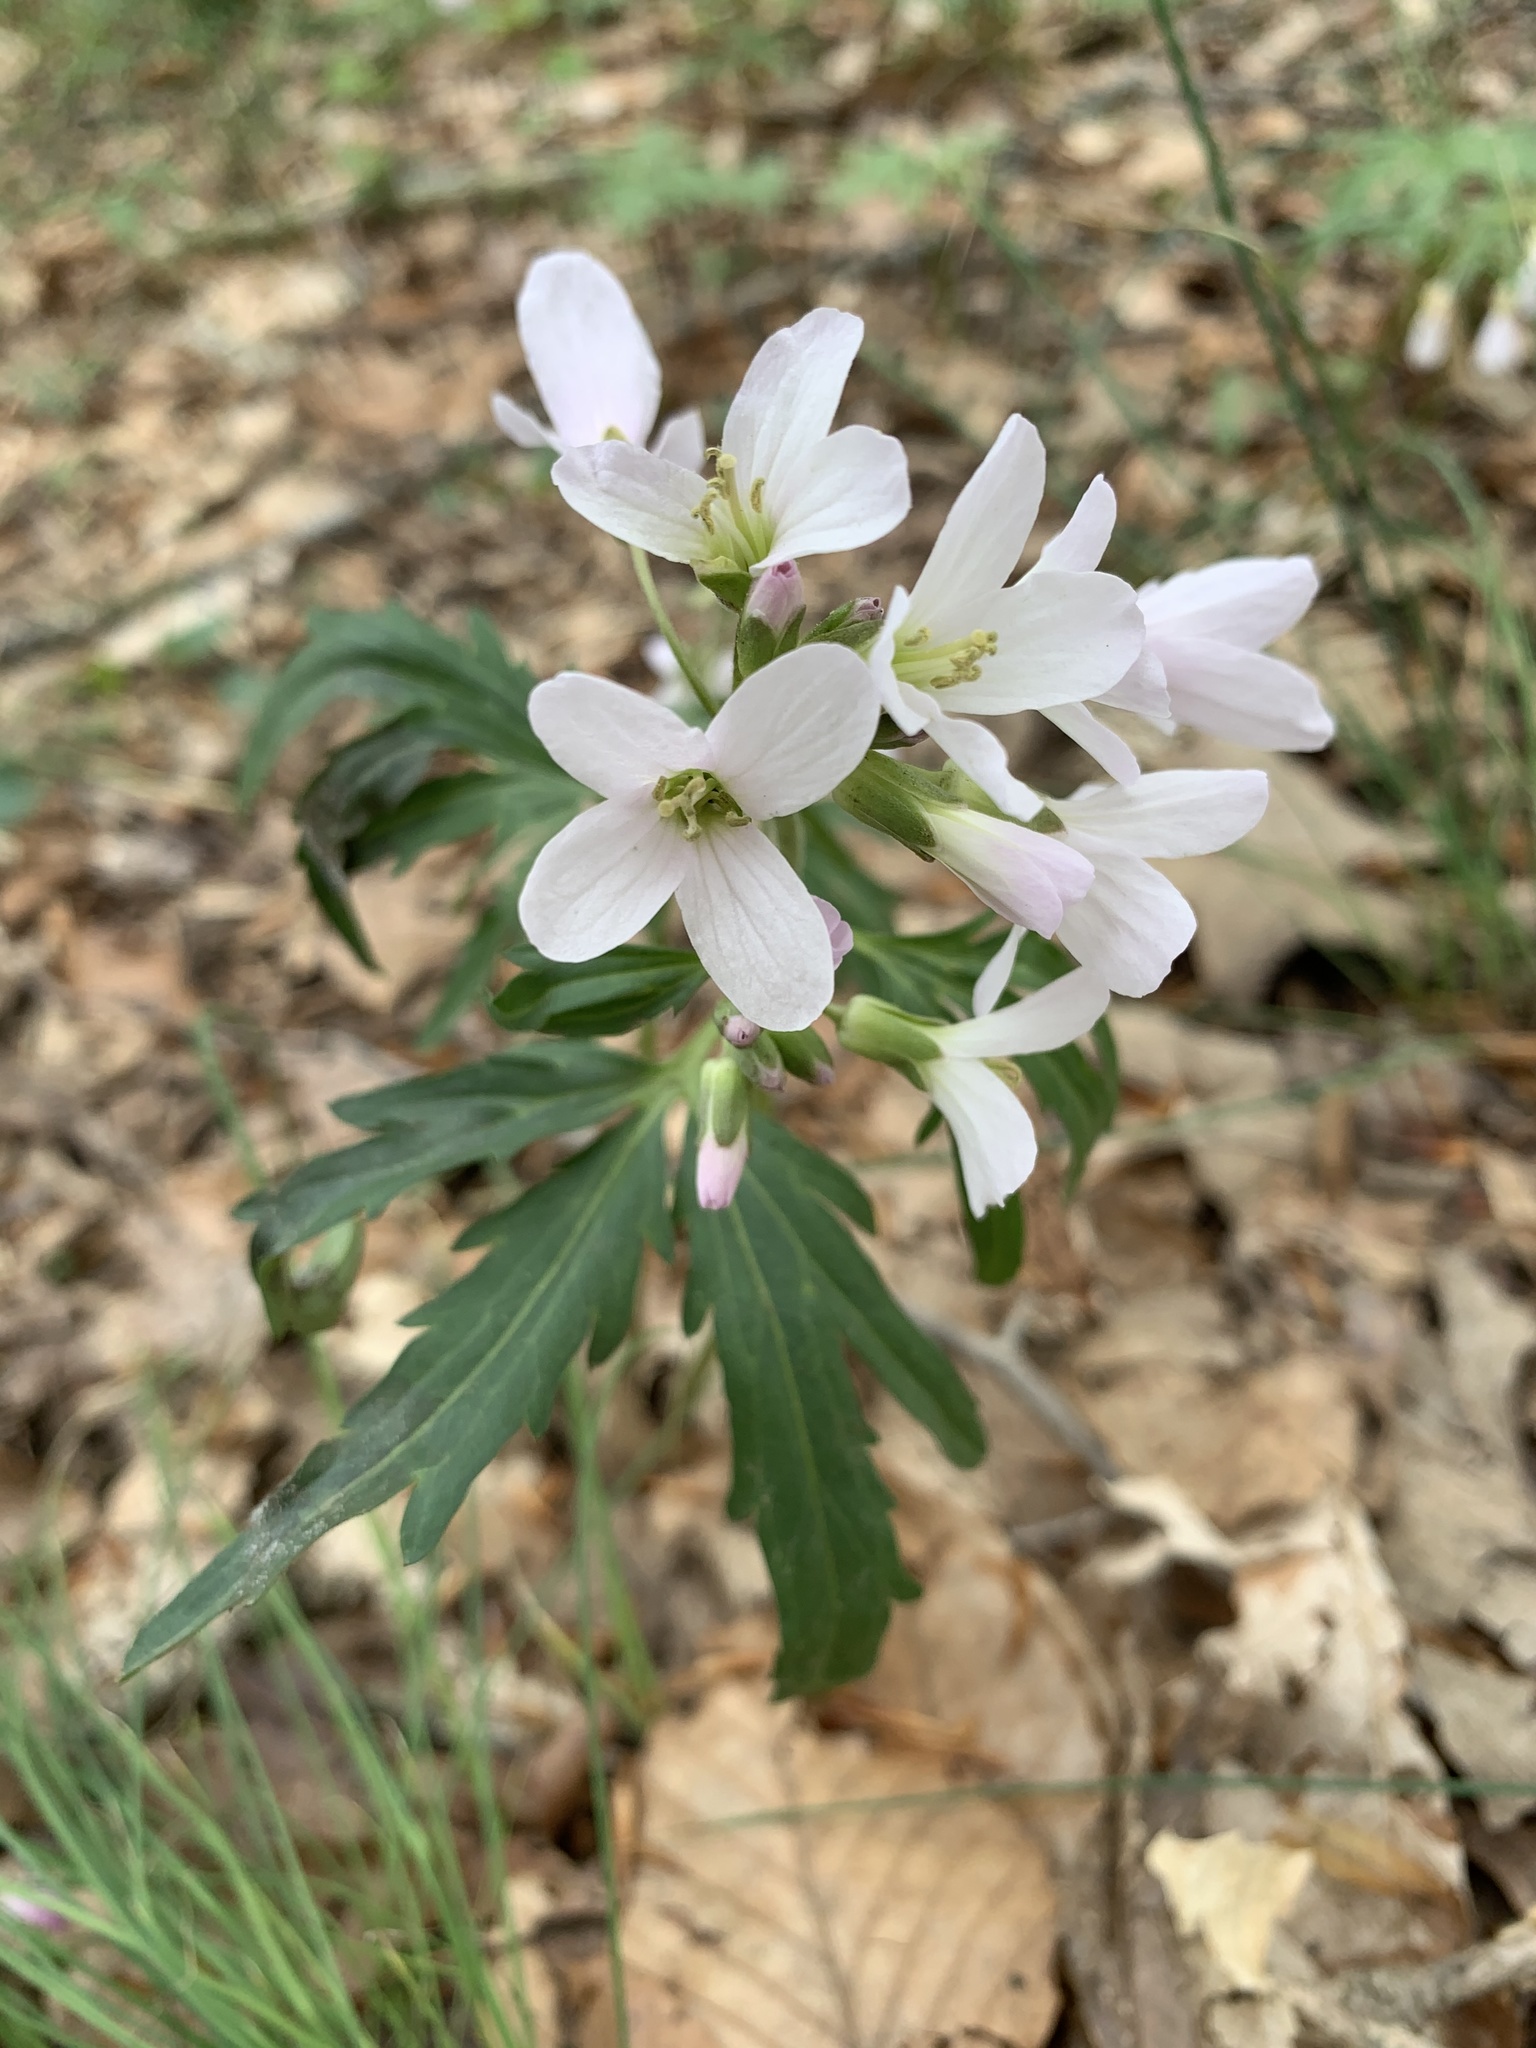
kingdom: Plantae
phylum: Tracheophyta
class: Magnoliopsida
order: Brassicales
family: Brassicaceae
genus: Cardamine
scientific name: Cardamine concatenata
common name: Cut-leaf toothcup
